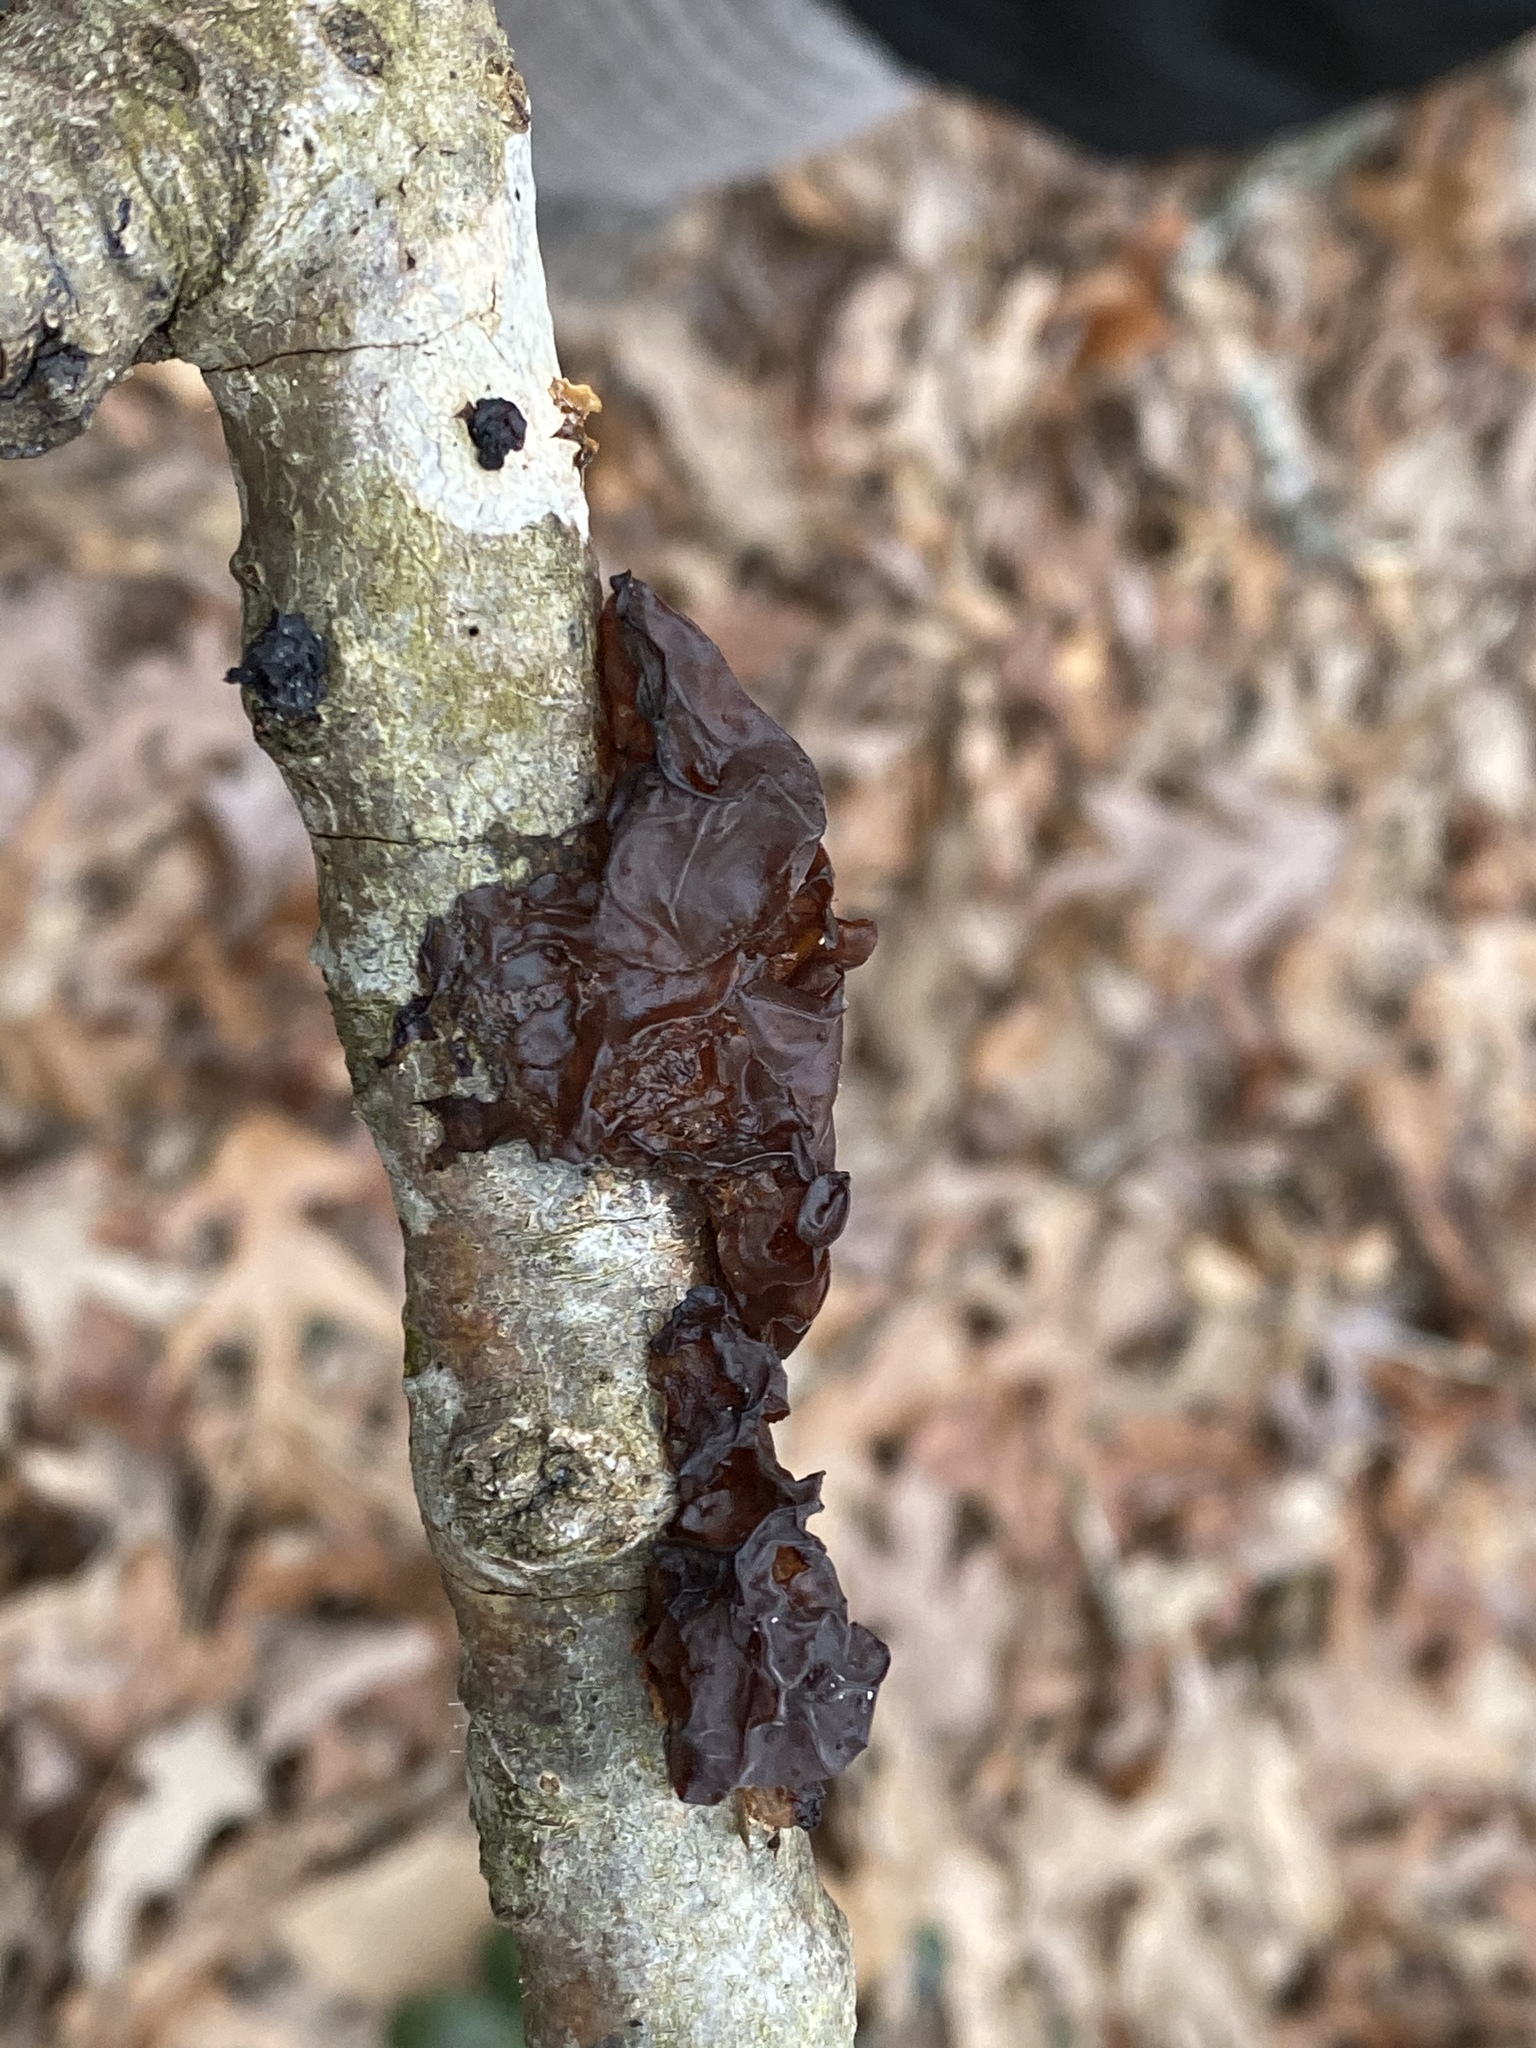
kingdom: Fungi
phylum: Basidiomycota
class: Agaricomycetes
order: Auriculariales
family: Auriculariaceae
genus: Exidia
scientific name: Exidia
